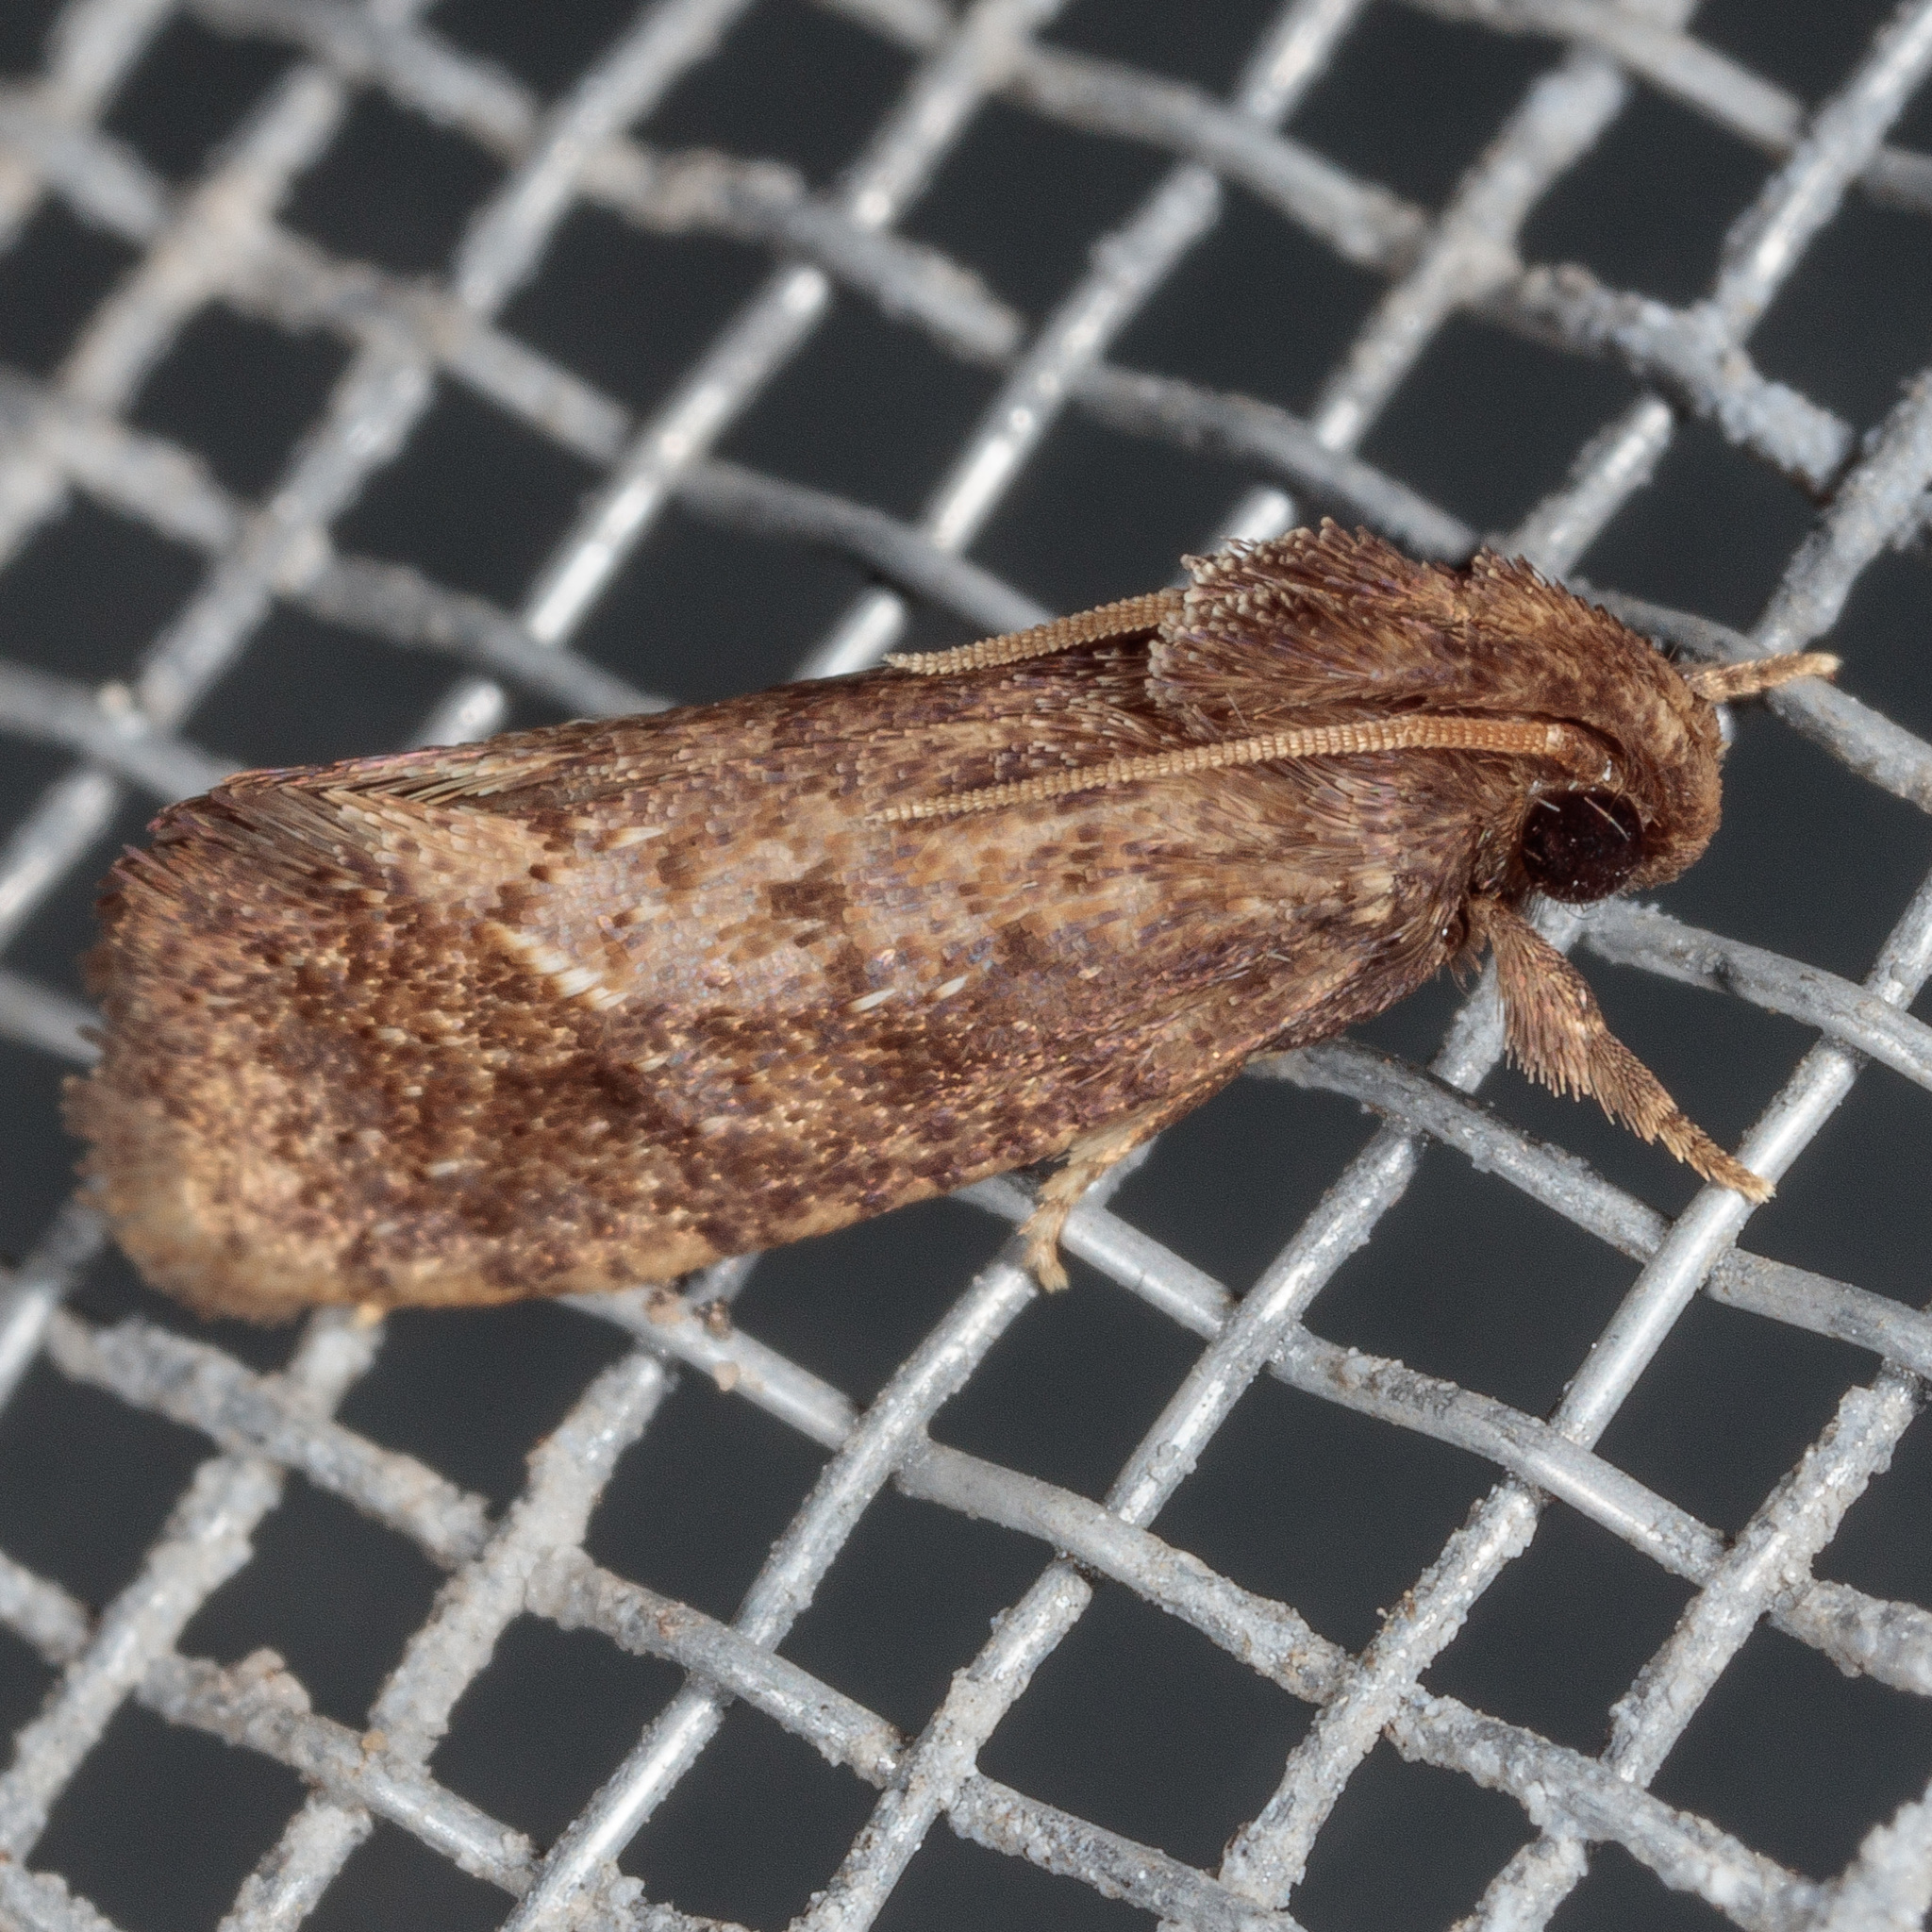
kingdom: Animalia
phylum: Arthropoda
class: Insecta
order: Lepidoptera
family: Tineidae
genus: Acrolophus
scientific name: Acrolophus texanella
